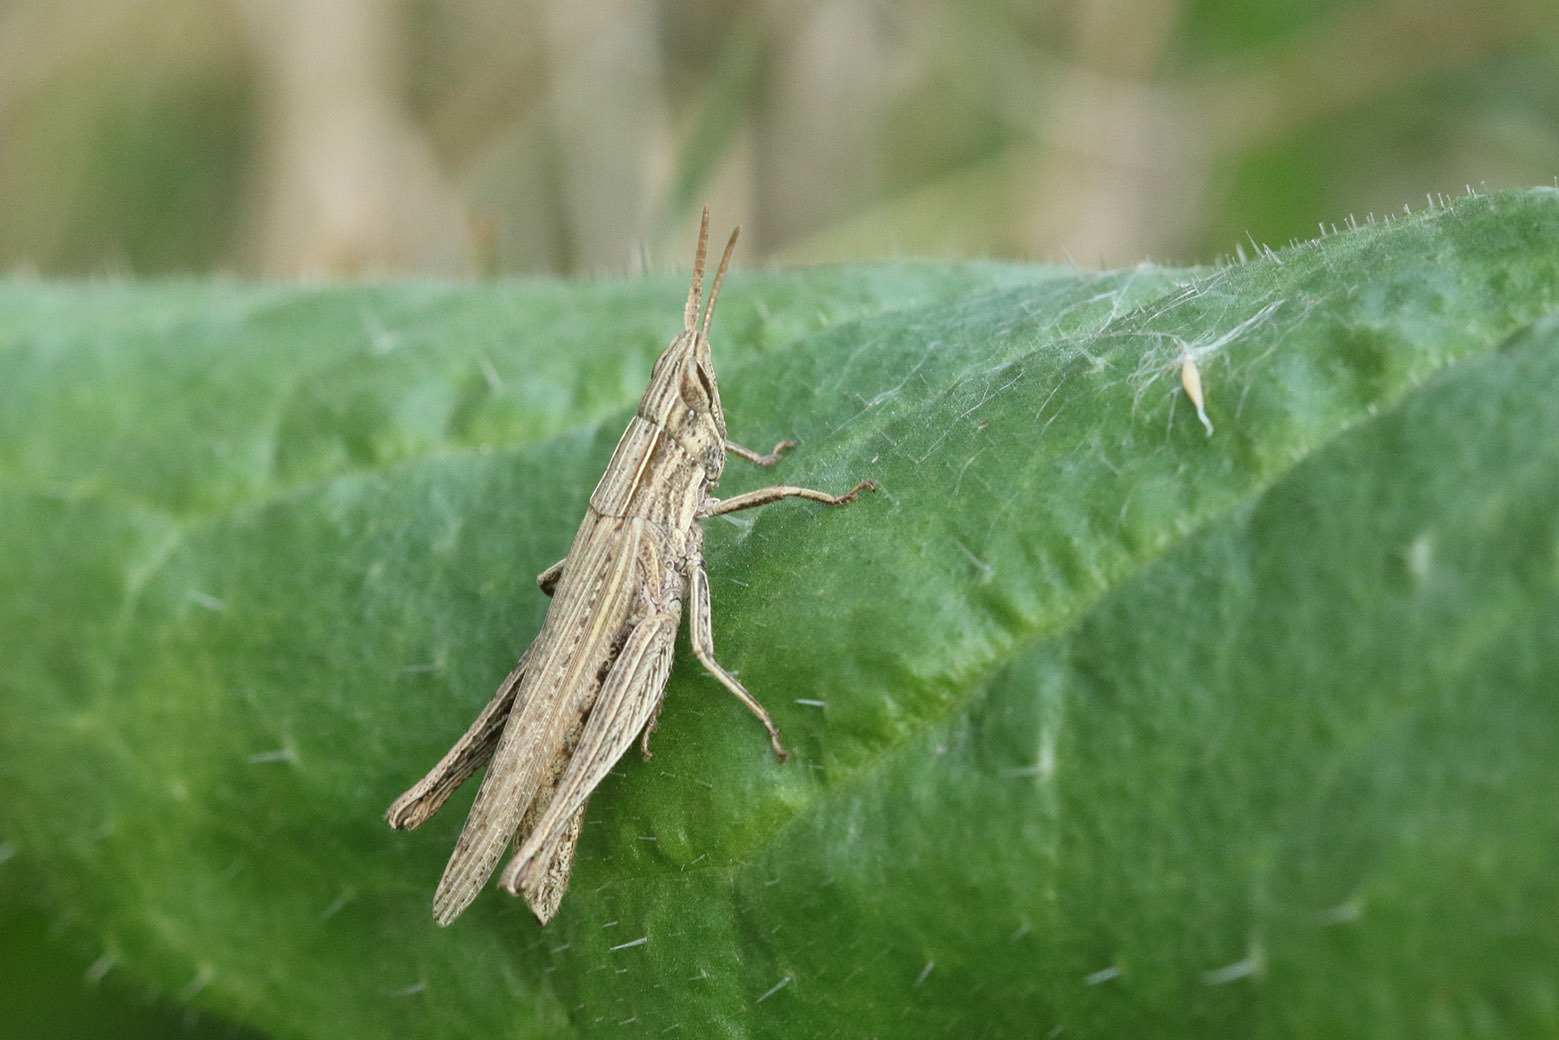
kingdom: Animalia
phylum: Arthropoda
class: Insecta
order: Orthoptera
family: Acrididae
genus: Laplatacris
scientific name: Laplatacris dispar
